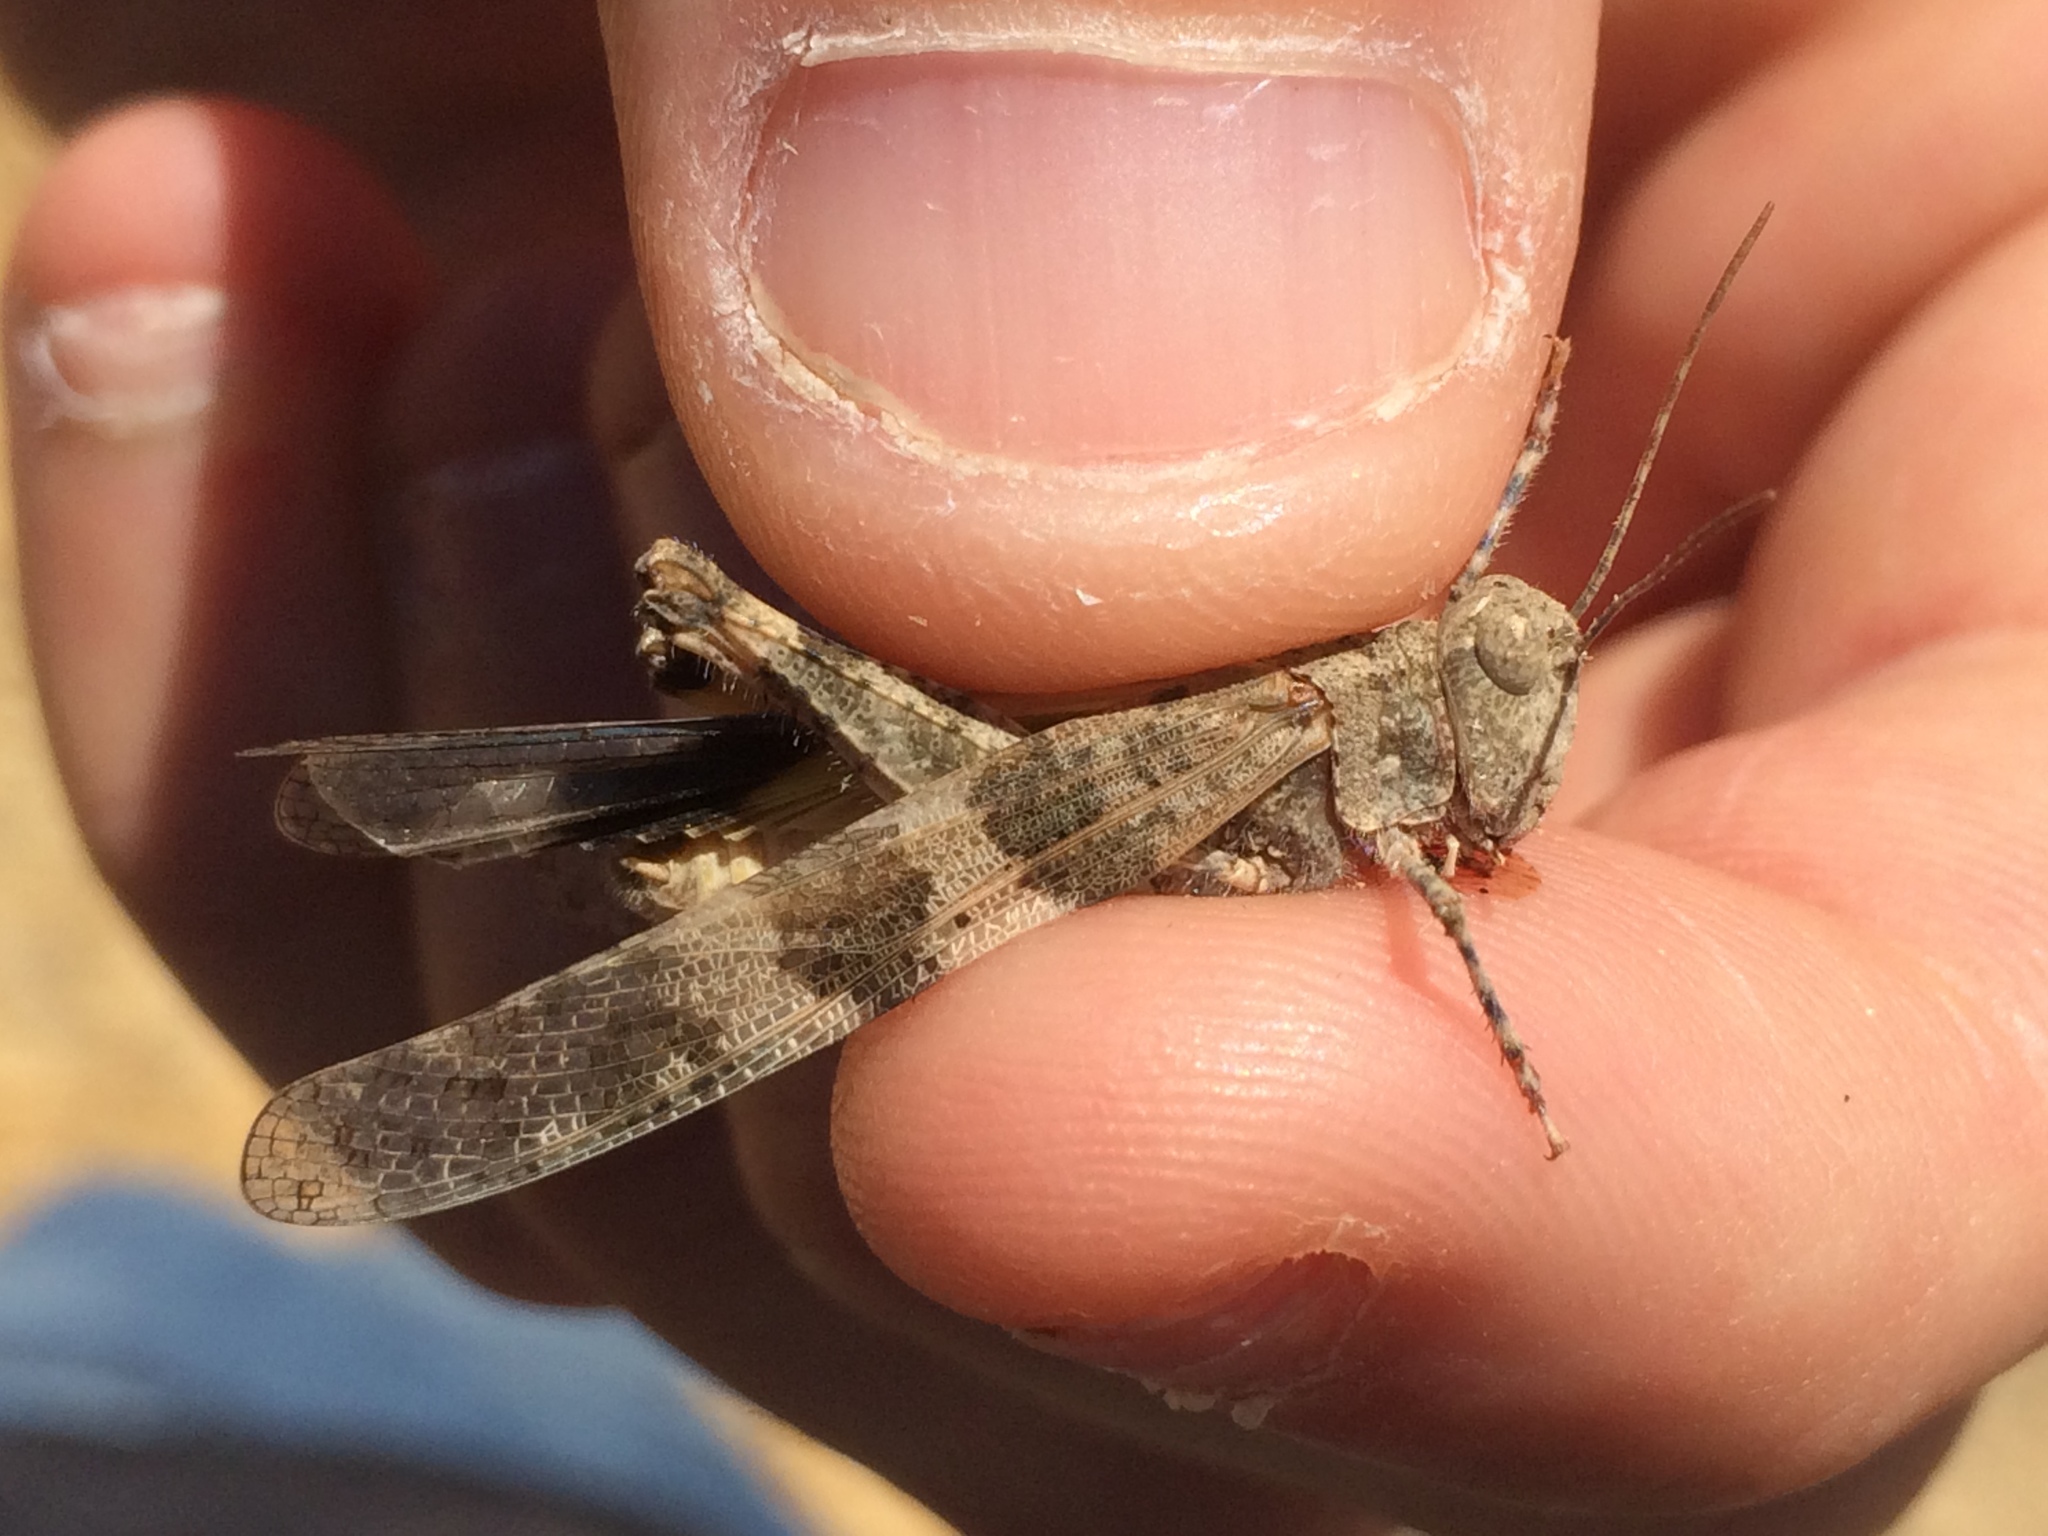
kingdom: Animalia
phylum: Arthropoda
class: Insecta
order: Orthoptera
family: Acrididae
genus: Trimerotropis
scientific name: Trimerotropis pallidipennis
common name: Pallid-winged grasshopper
